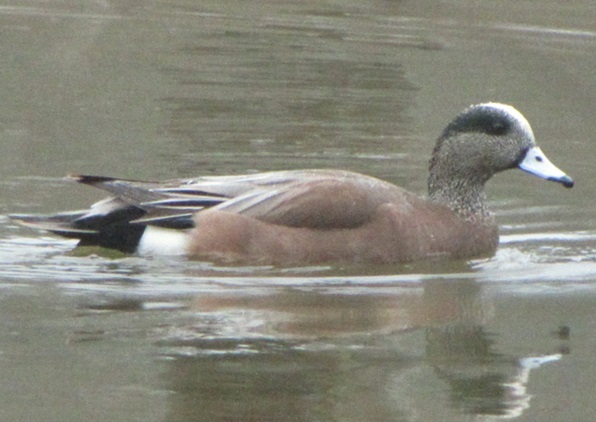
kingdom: Animalia
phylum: Chordata
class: Aves
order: Anseriformes
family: Anatidae
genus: Mareca
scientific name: Mareca americana
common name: American wigeon
